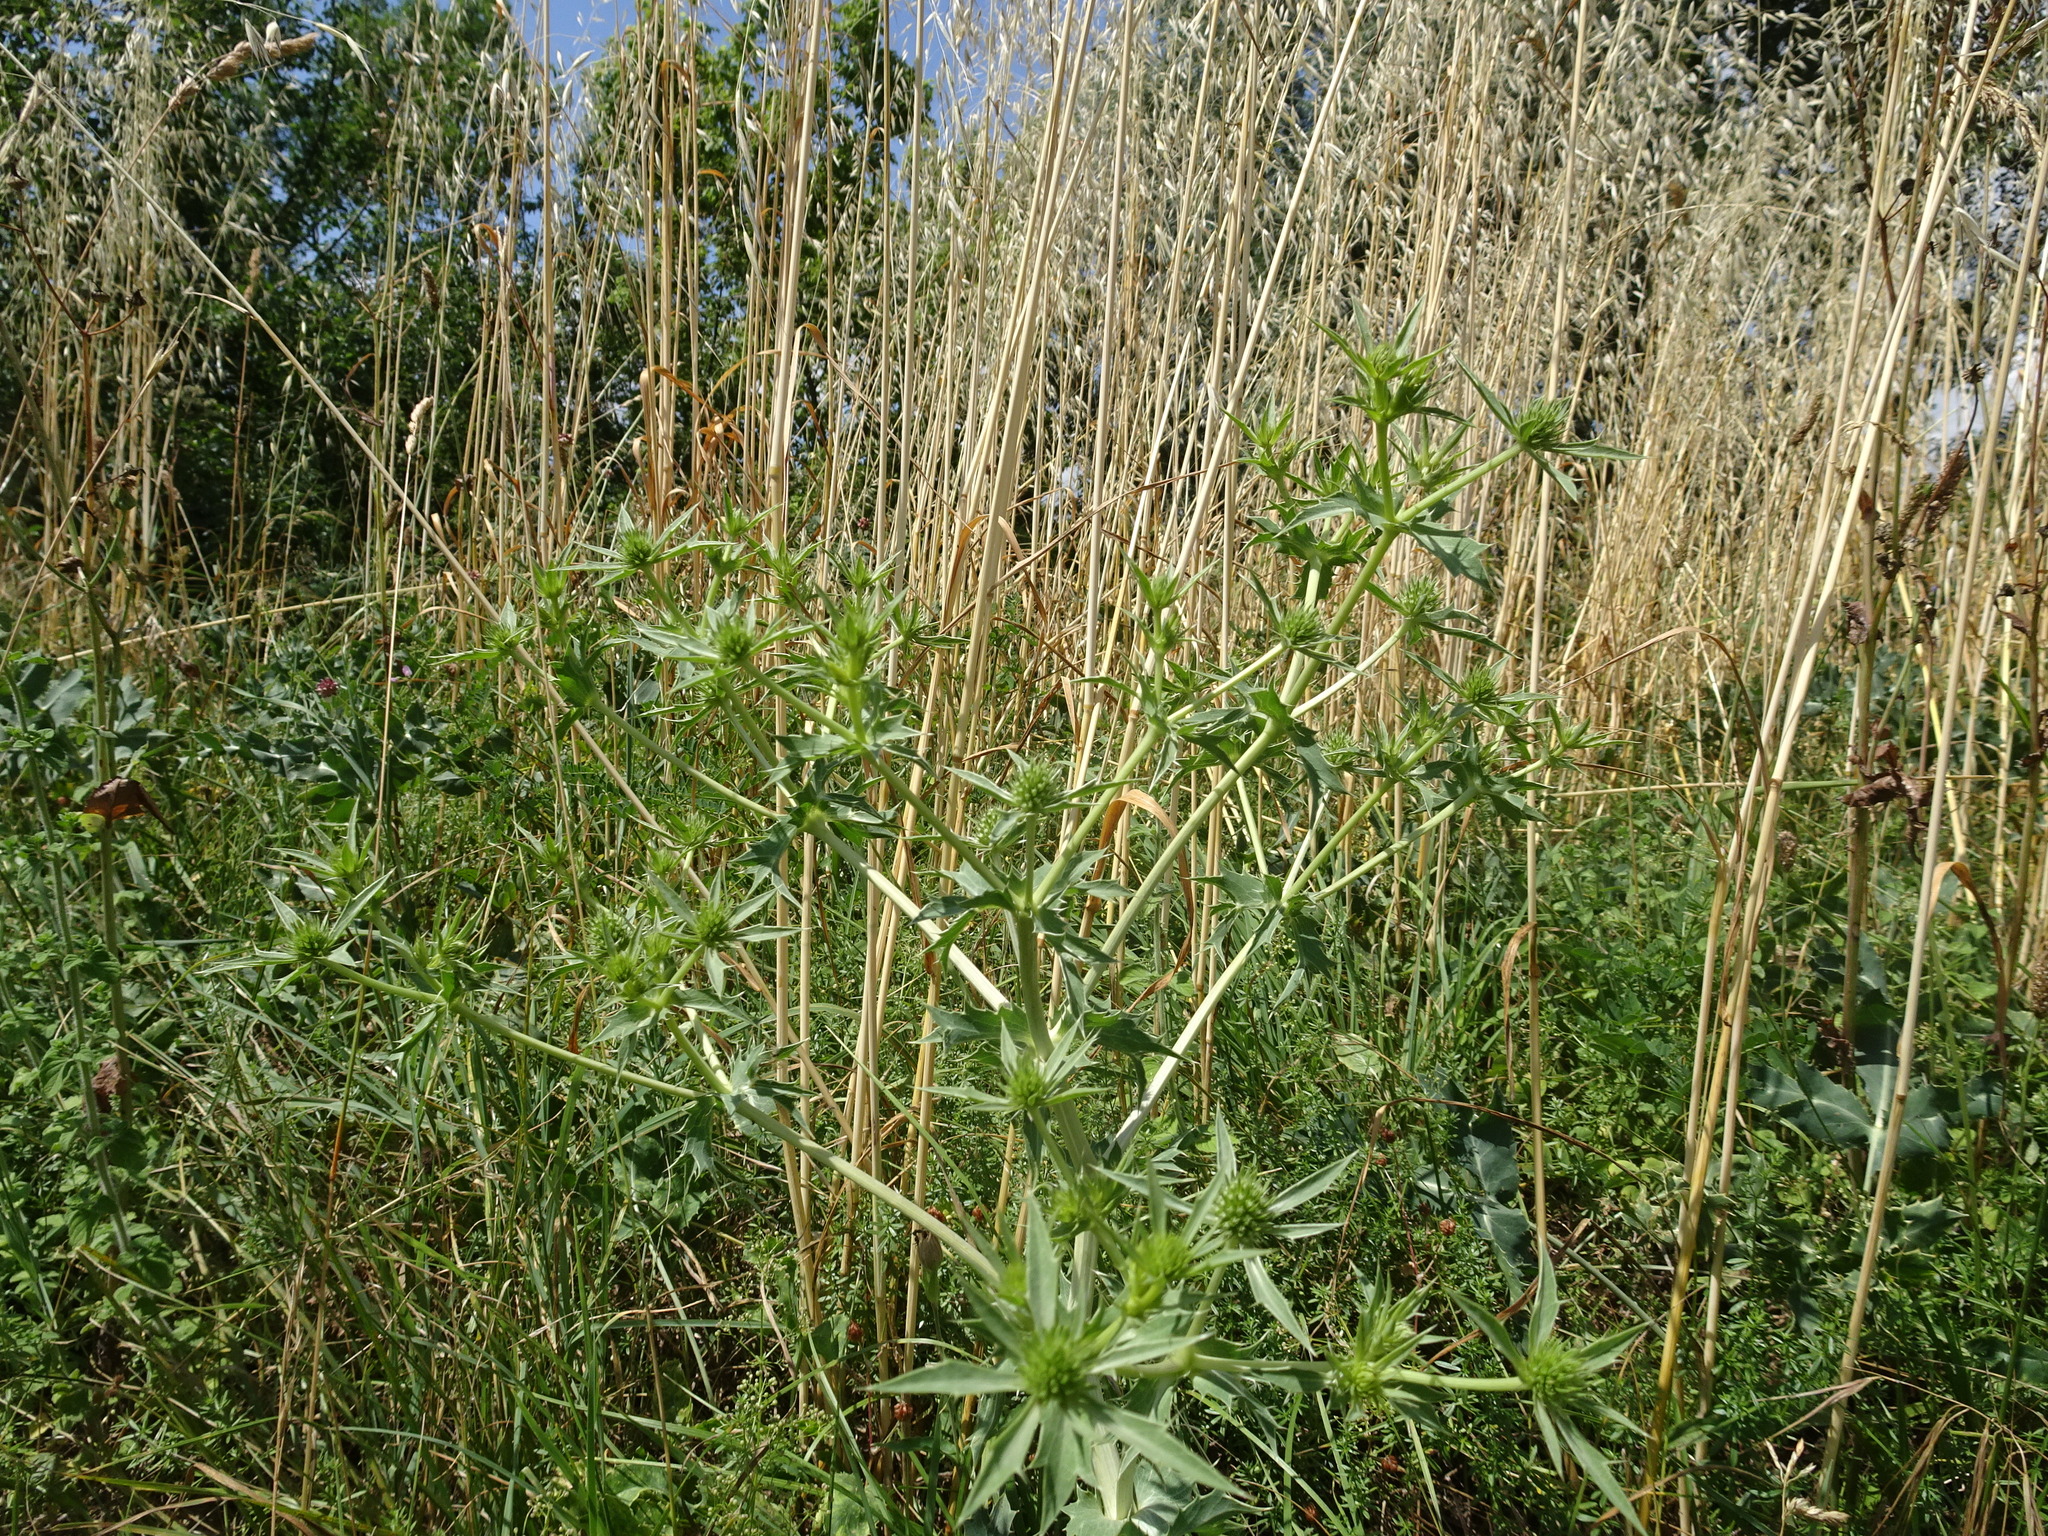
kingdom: Plantae
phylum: Tracheophyta
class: Magnoliopsida
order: Apiales
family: Apiaceae
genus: Eryngium
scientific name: Eryngium campestre
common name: Field eryngo
